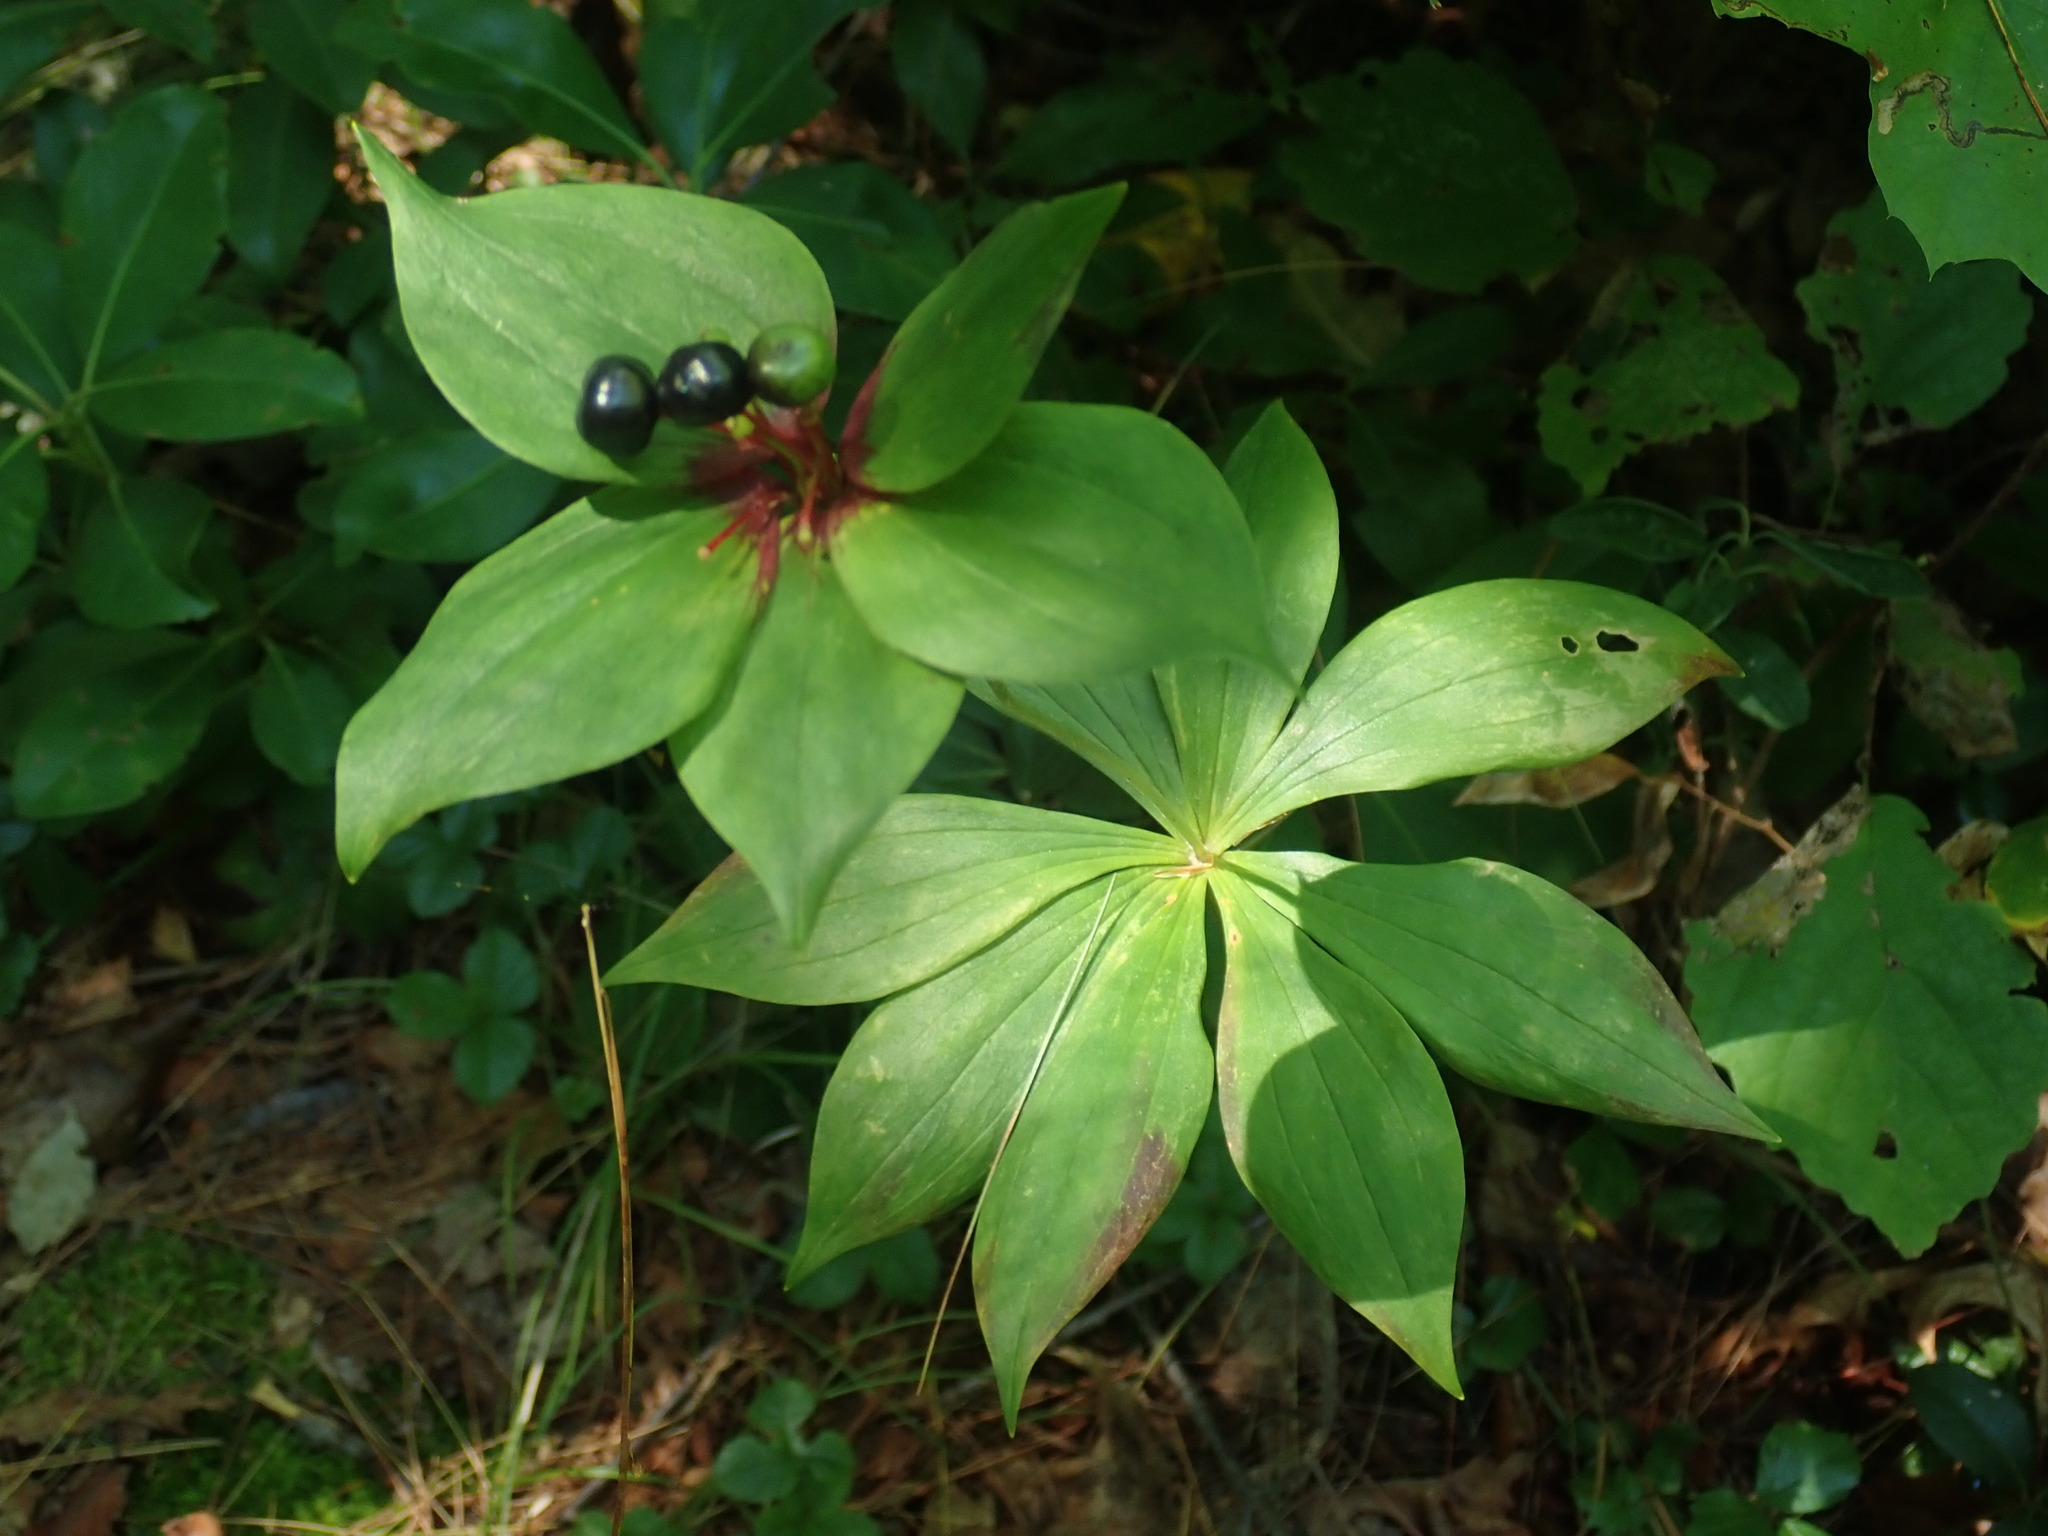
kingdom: Plantae
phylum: Tracheophyta
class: Liliopsida
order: Liliales
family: Liliaceae
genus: Medeola
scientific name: Medeola virginiana
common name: Indian cucumber-root
